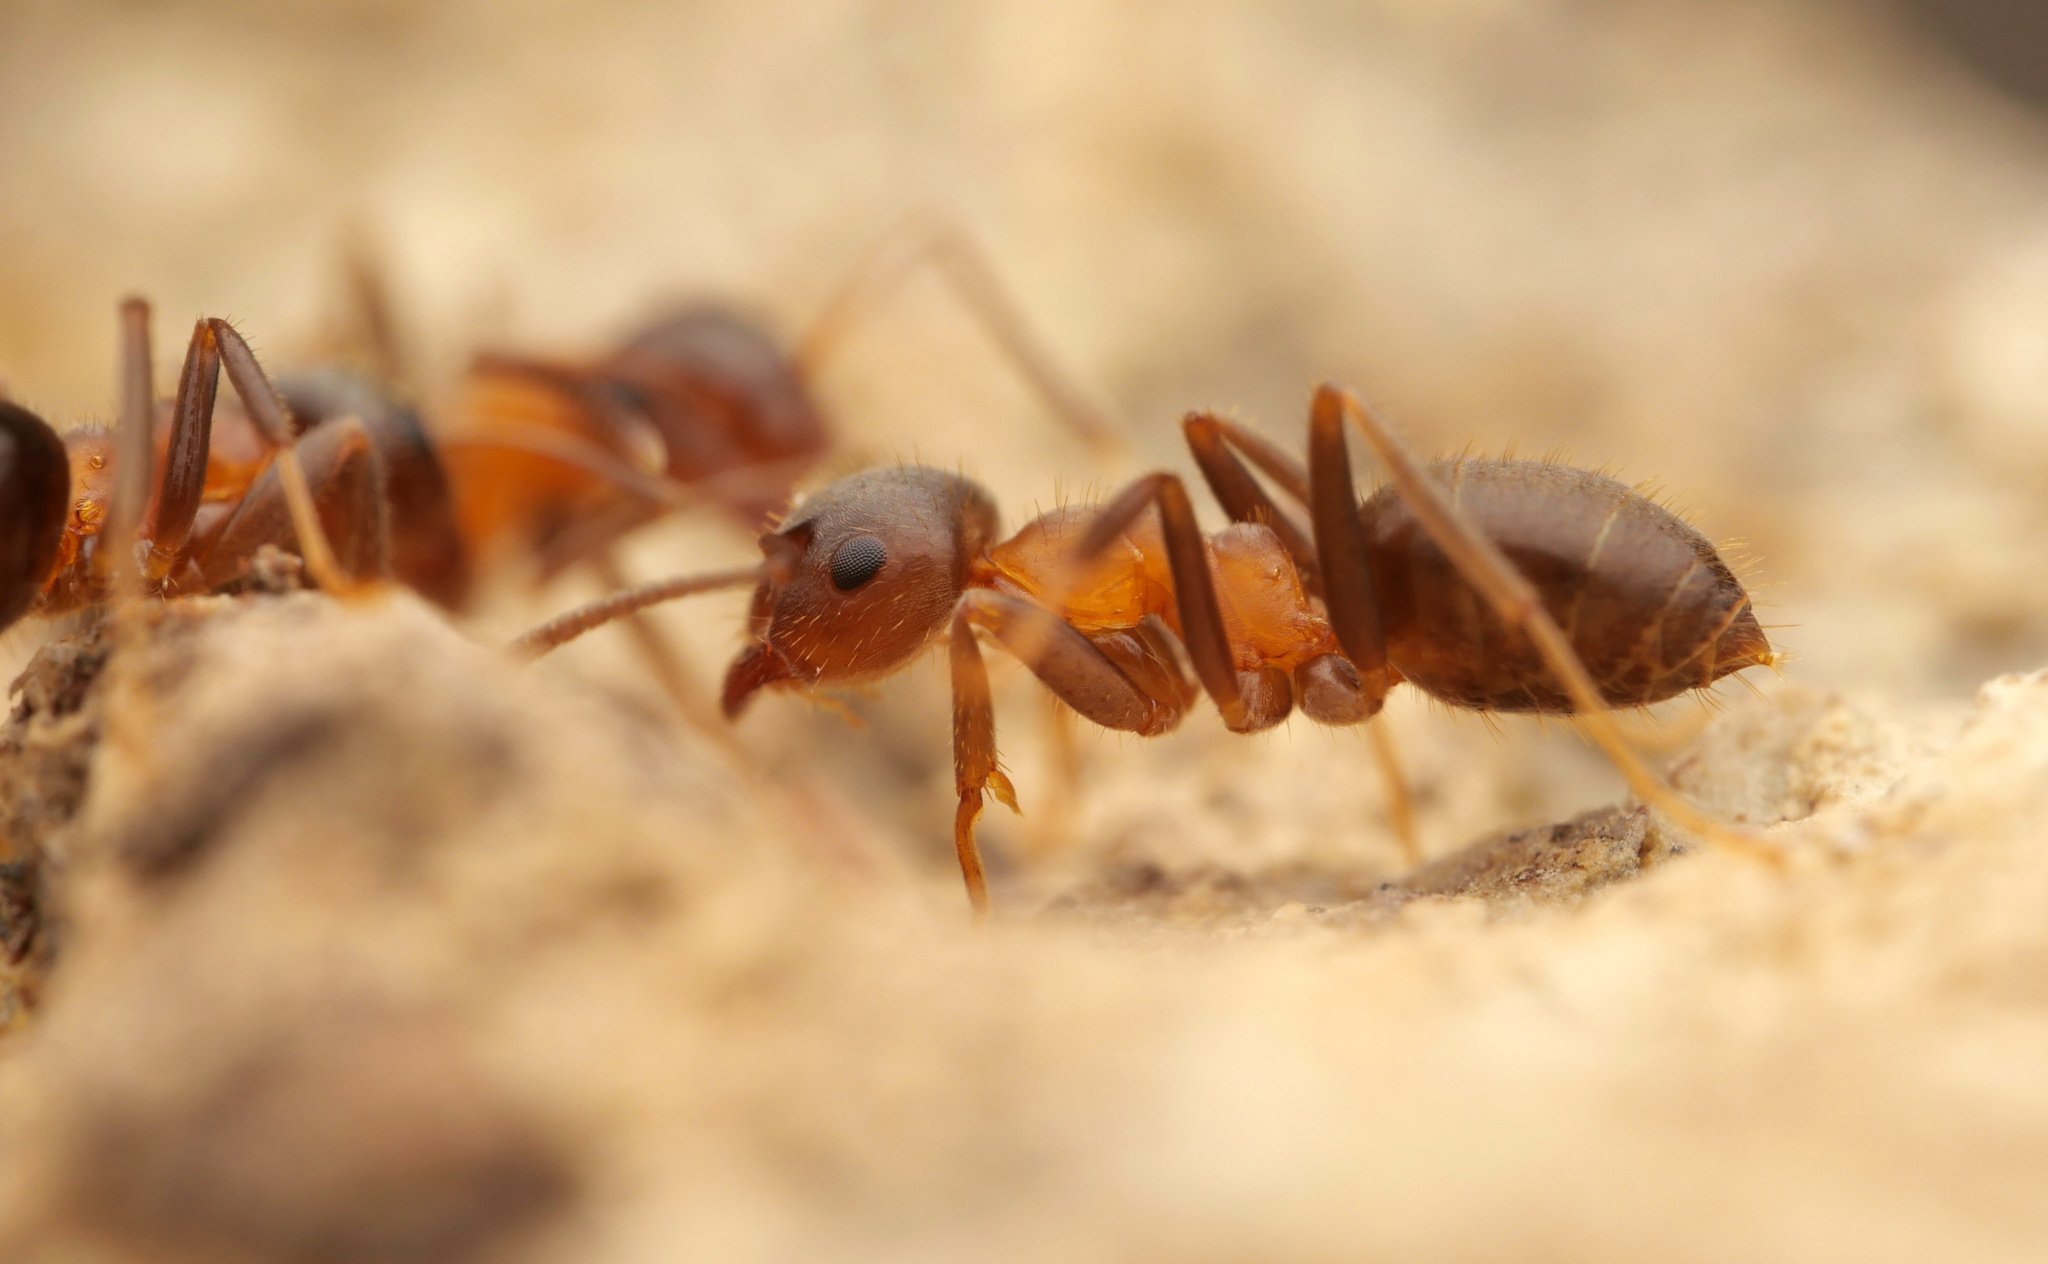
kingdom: Animalia
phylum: Arthropoda
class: Insecta
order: Hymenoptera
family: Formicidae
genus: Lasius
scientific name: Lasius emarginatus
